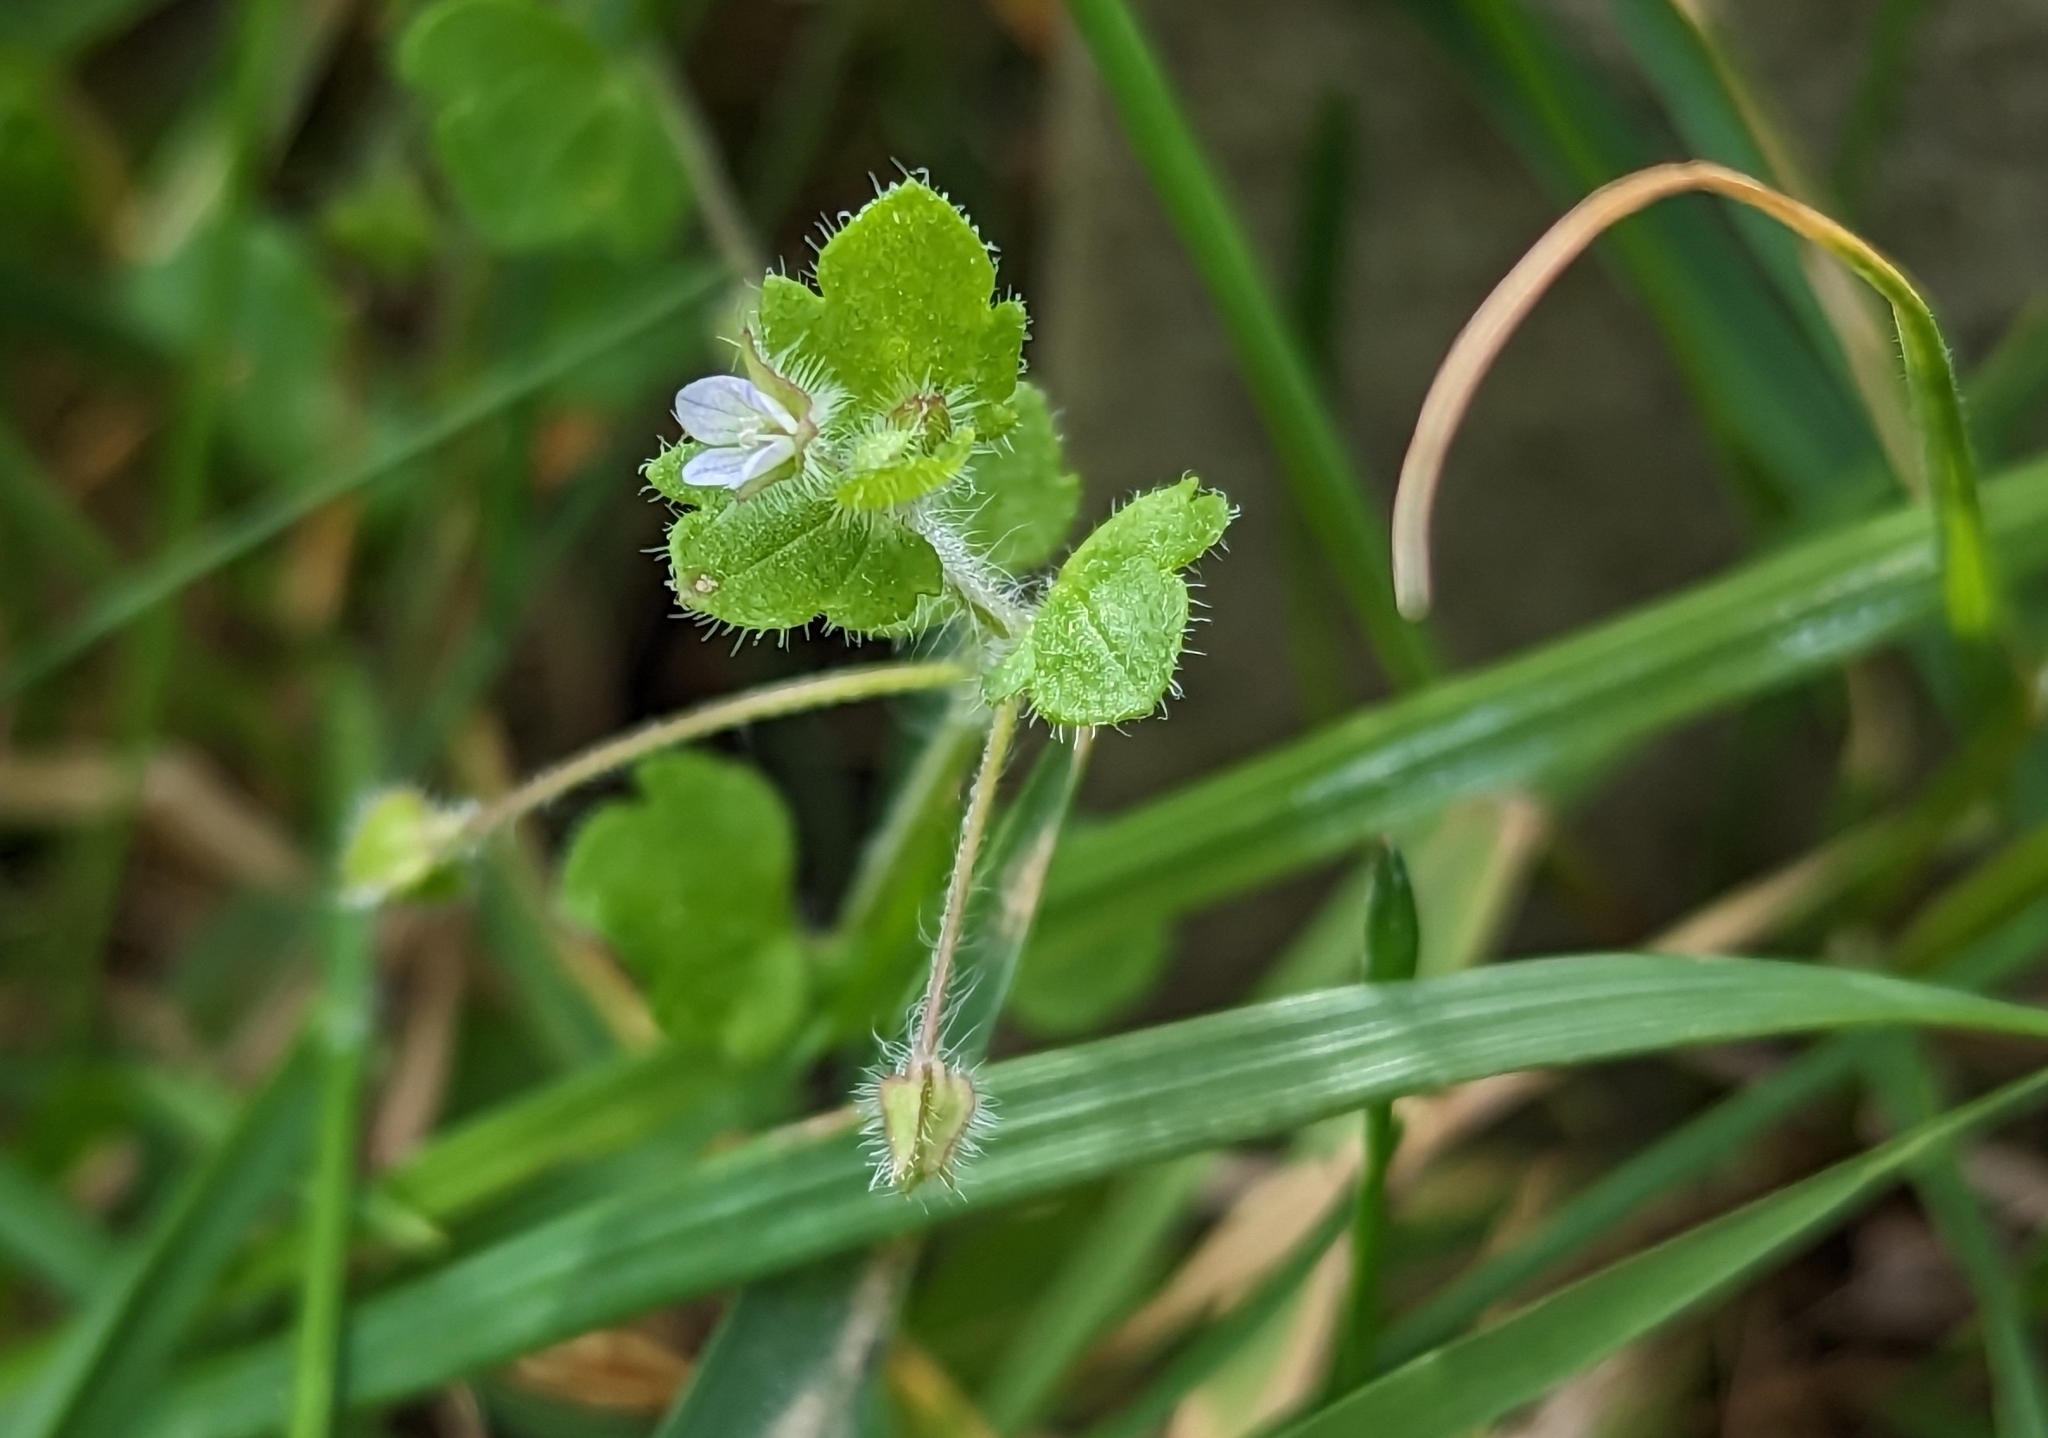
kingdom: Plantae
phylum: Tracheophyta
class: Magnoliopsida
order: Lamiales
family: Plantaginaceae
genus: Veronica
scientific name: Veronica sublobata
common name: False ivy-leaved speedwell
